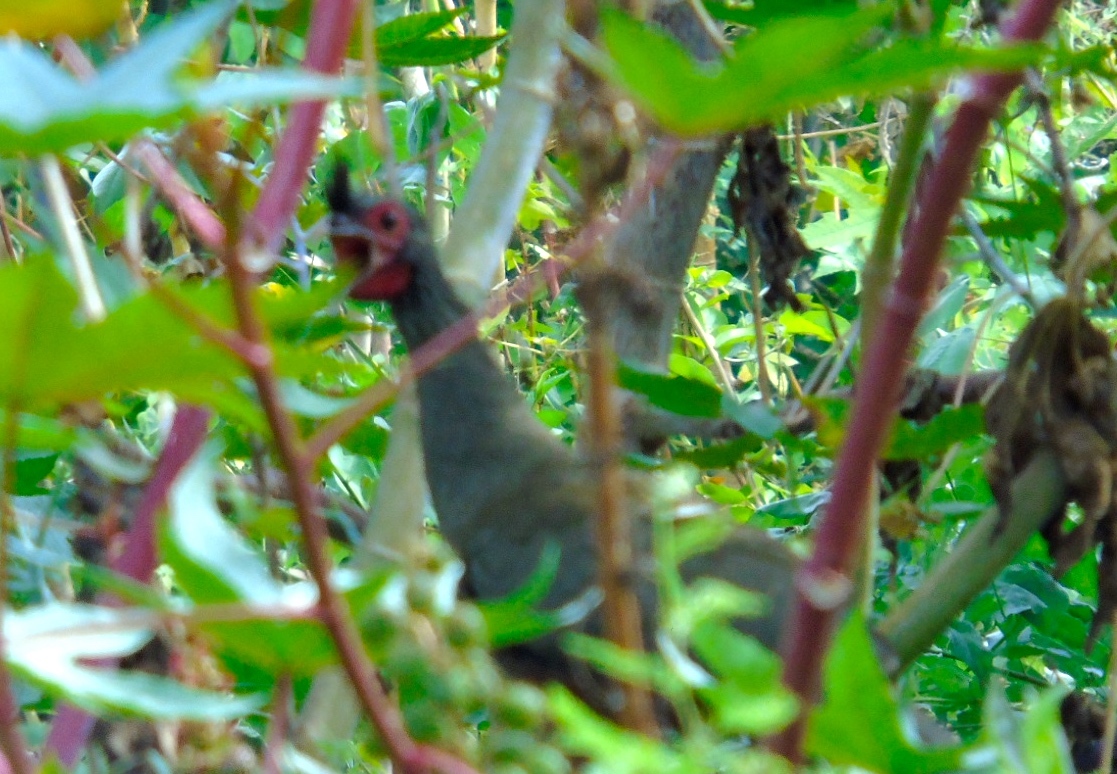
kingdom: Animalia
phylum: Chordata
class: Aves
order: Galliformes
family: Cracidae
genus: Ortalis
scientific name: Ortalis wagleri
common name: Rufous-bellied chachalaca
